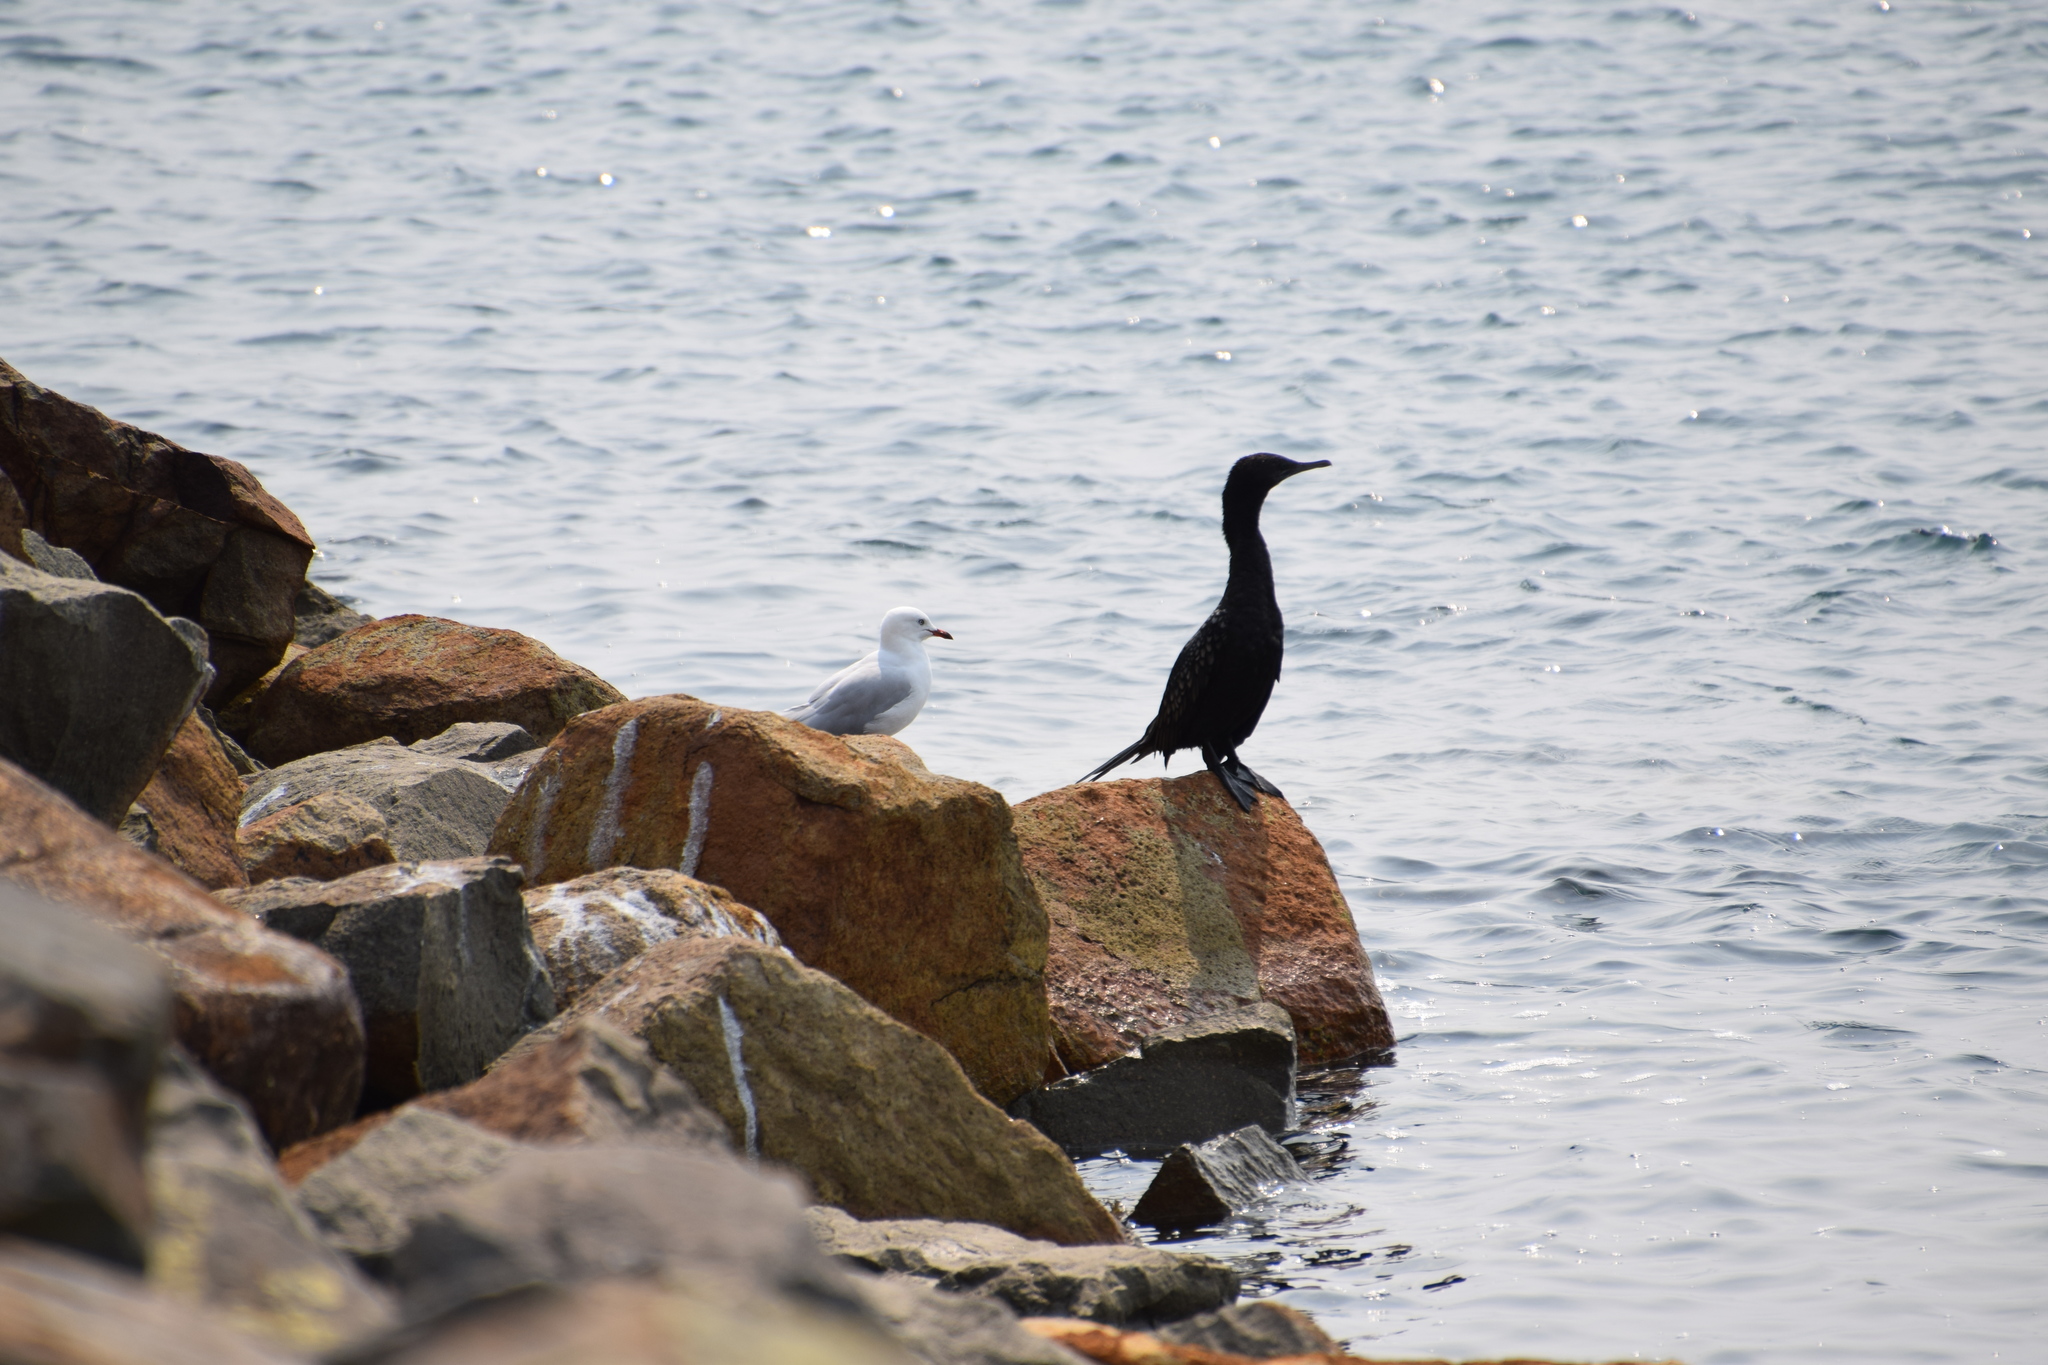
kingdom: Animalia
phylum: Chordata
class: Aves
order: Charadriiformes
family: Laridae
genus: Chroicocephalus
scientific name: Chroicocephalus novaehollandiae
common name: Silver gull
